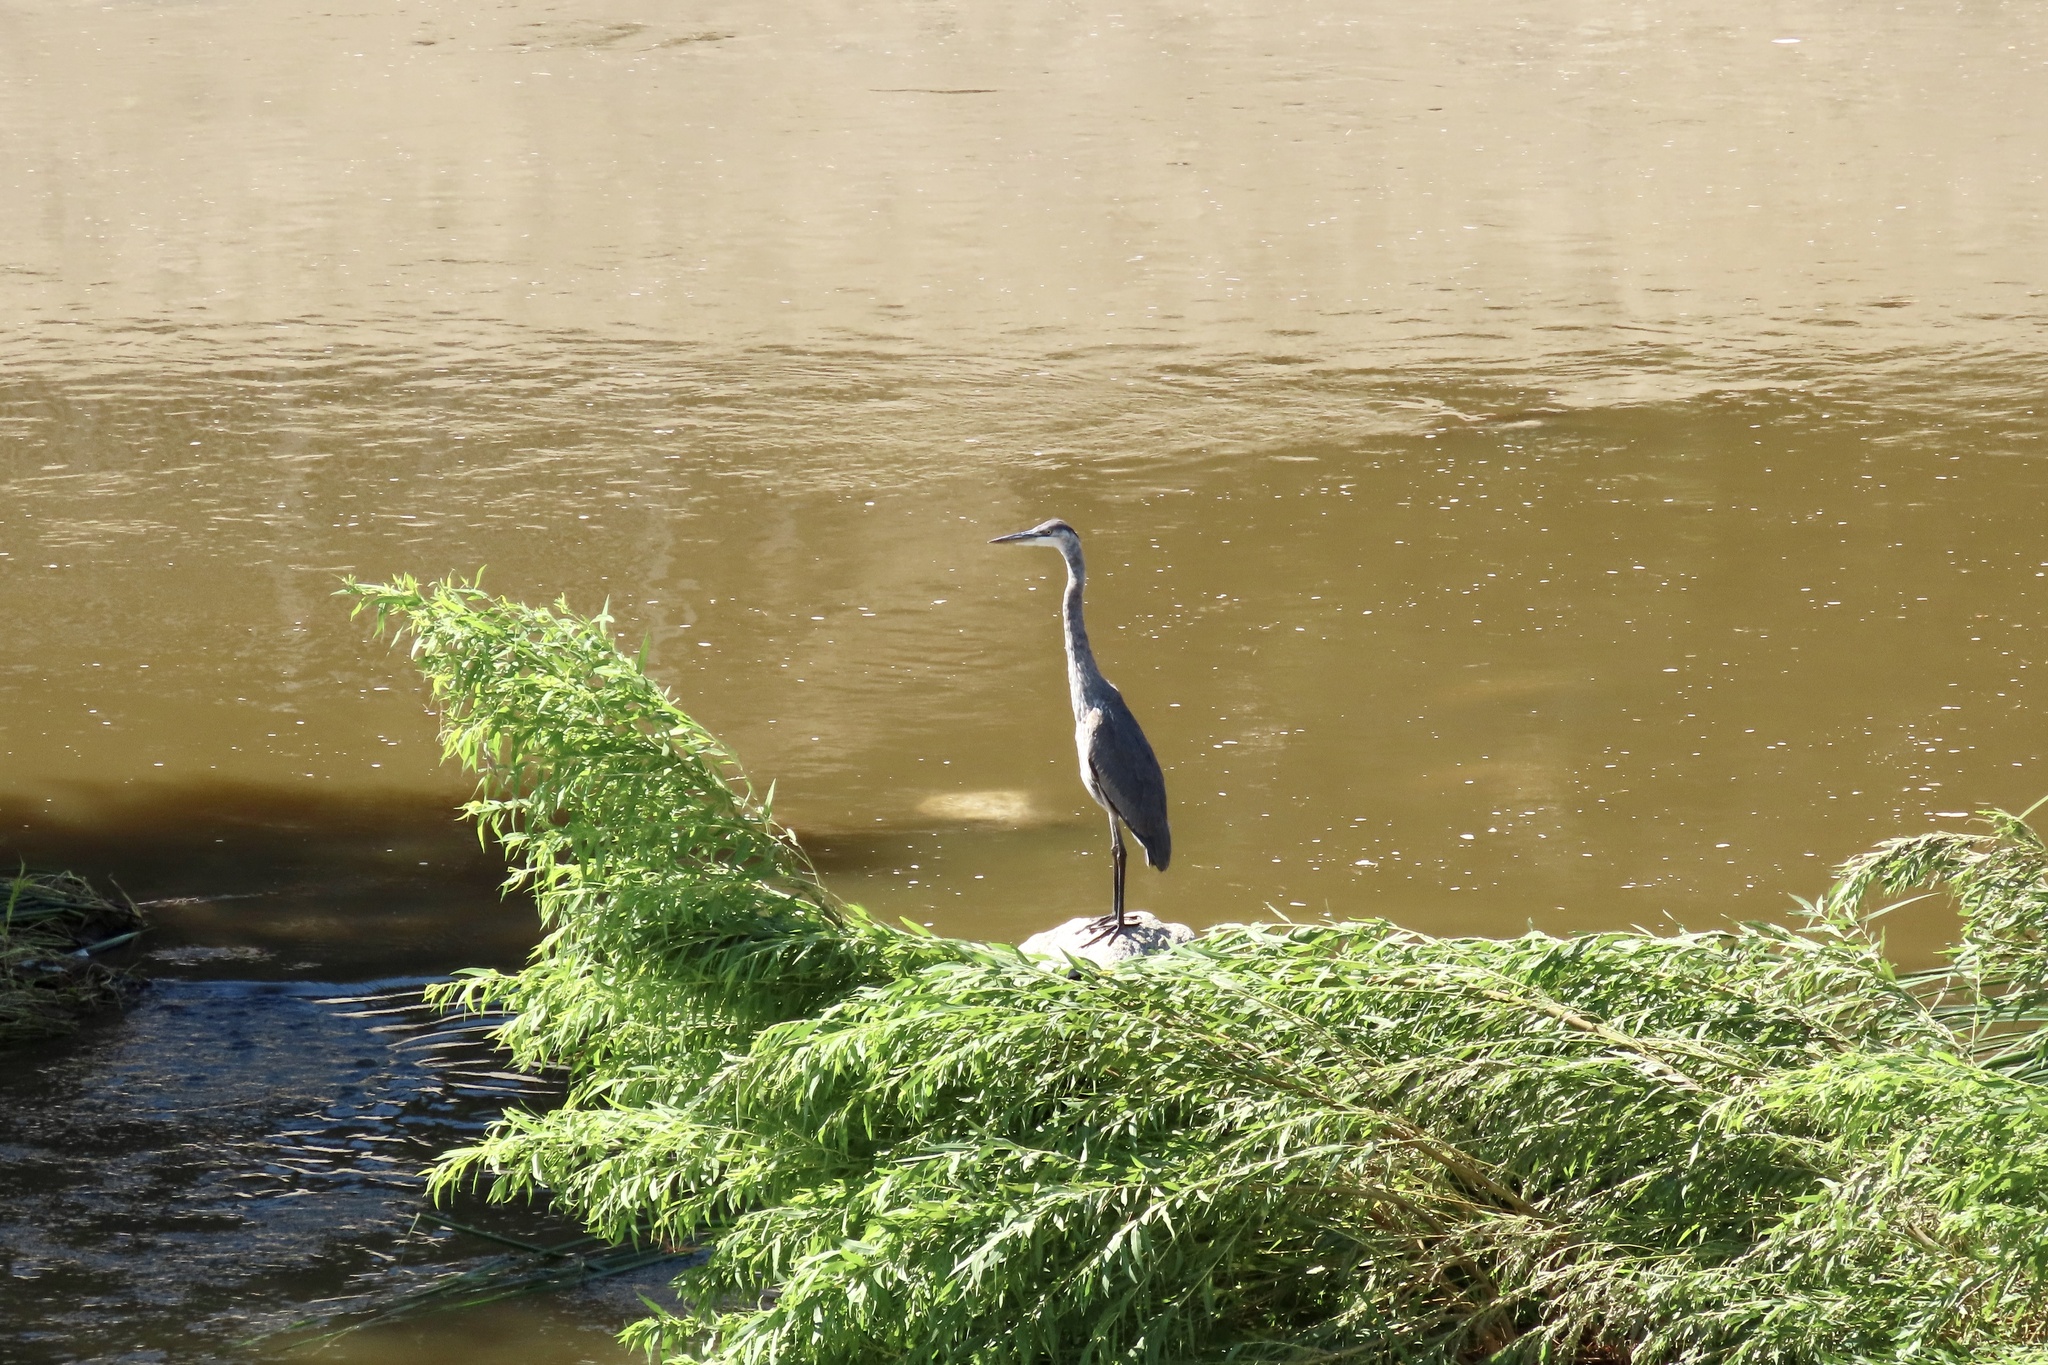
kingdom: Animalia
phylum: Chordata
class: Aves
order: Pelecaniformes
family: Ardeidae
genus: Ardea
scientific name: Ardea herodias
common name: Great blue heron
